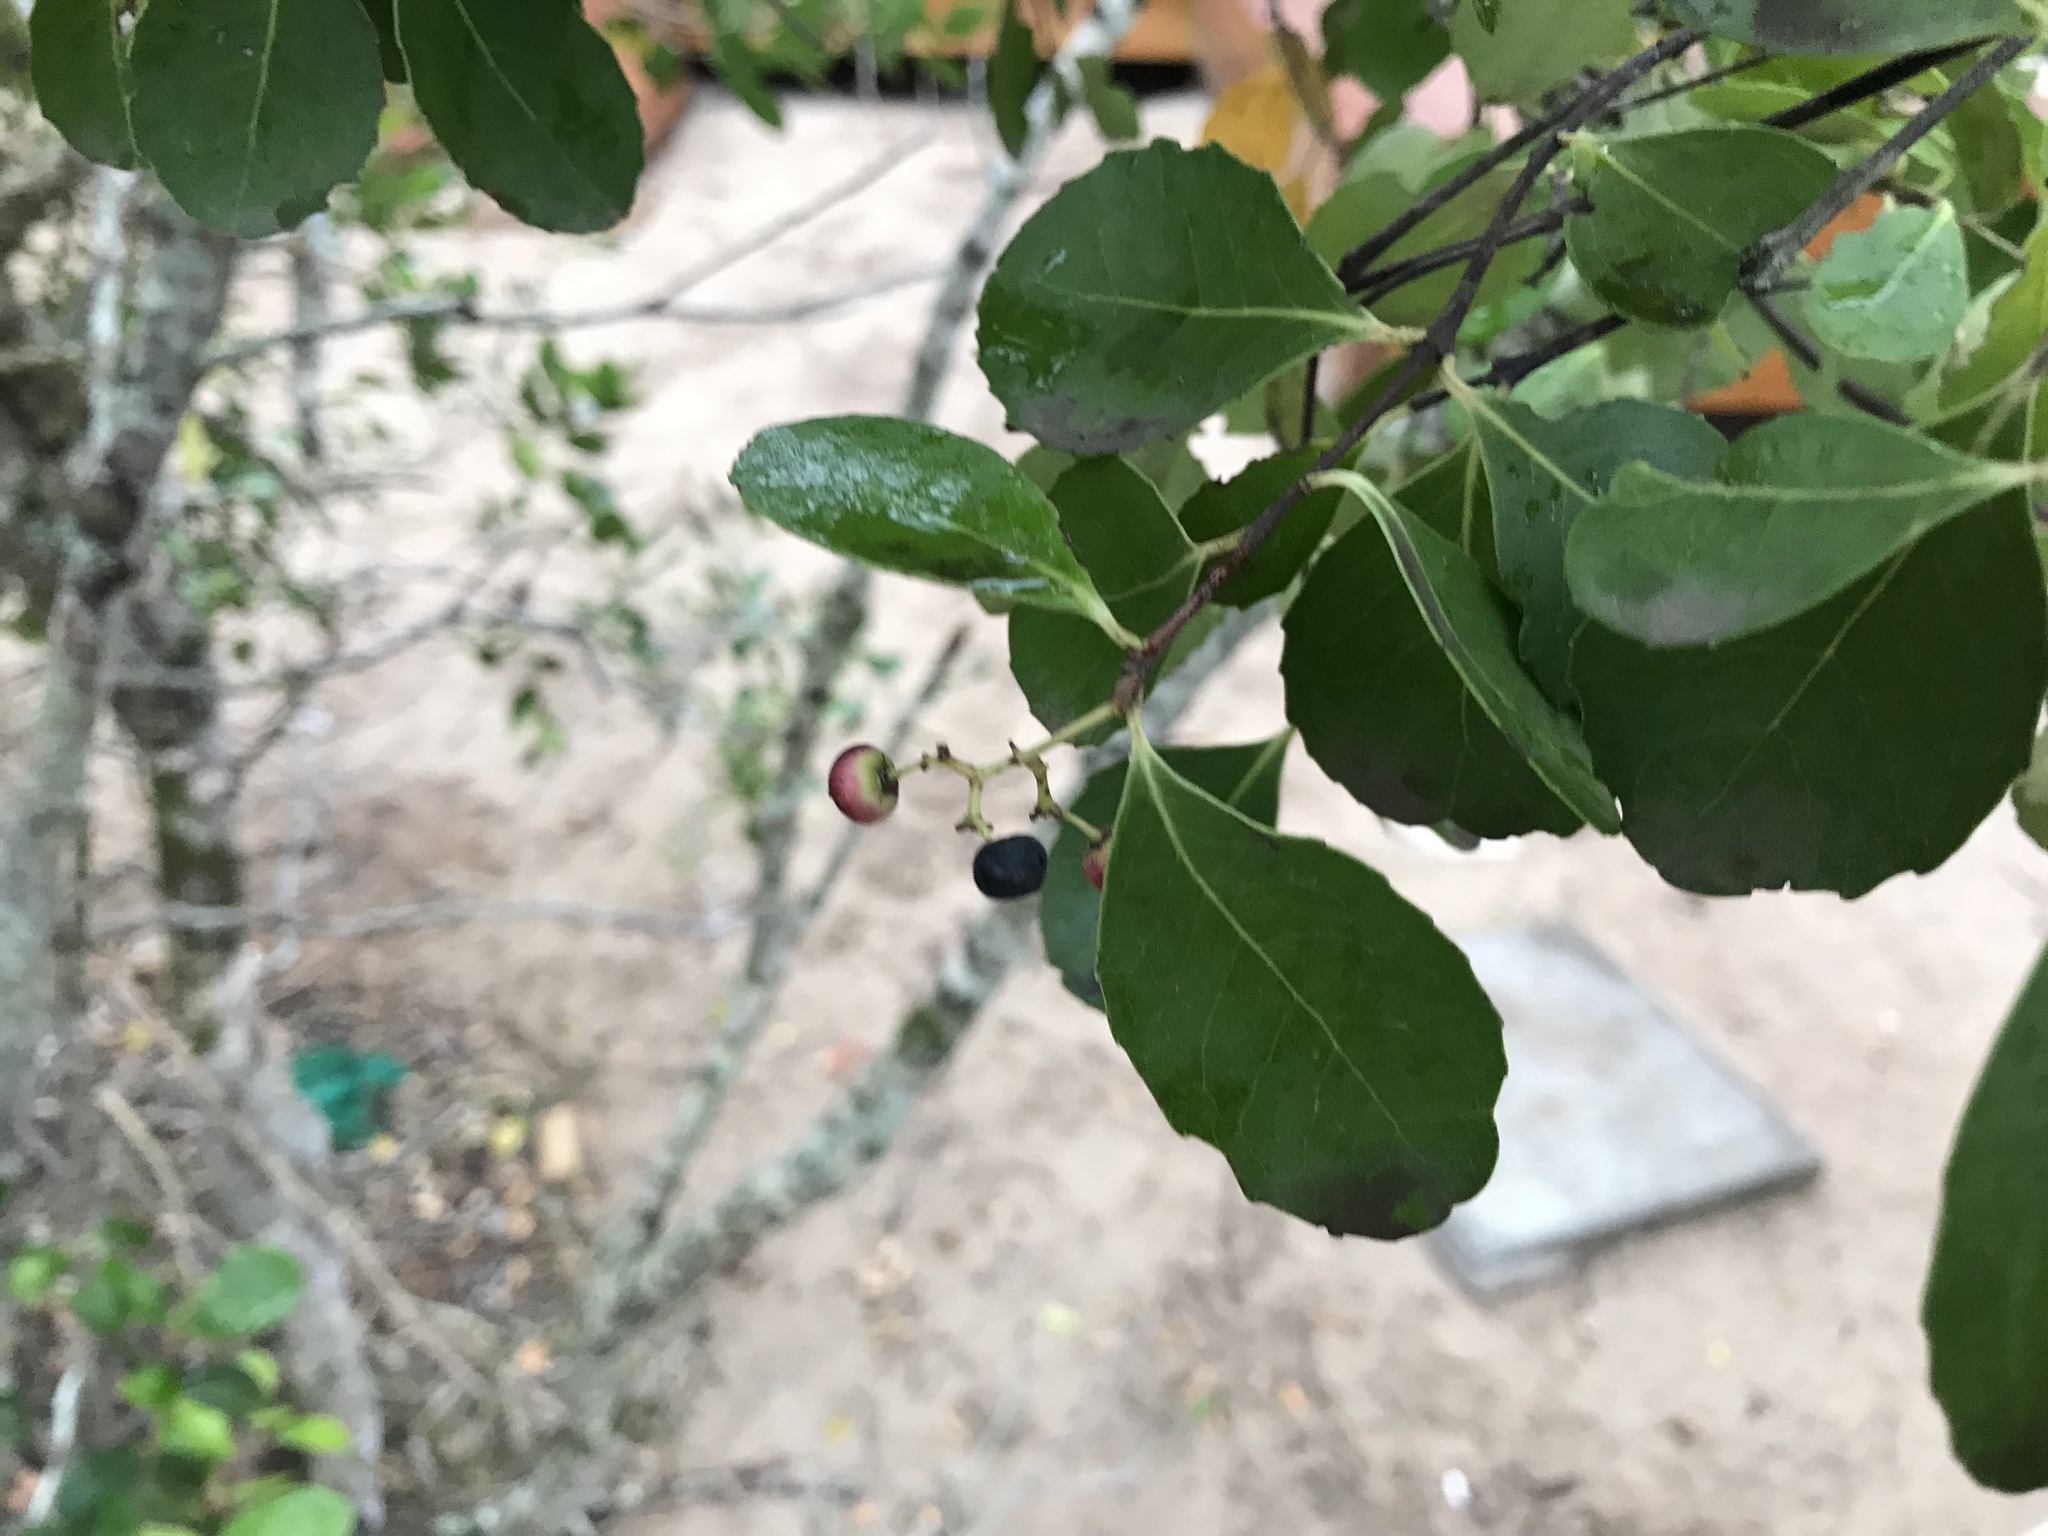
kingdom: Plantae
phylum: Tracheophyta
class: Magnoliopsida
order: Celastrales
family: Celastraceae
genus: Cassine
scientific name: Cassine peragua
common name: Cape saffron
